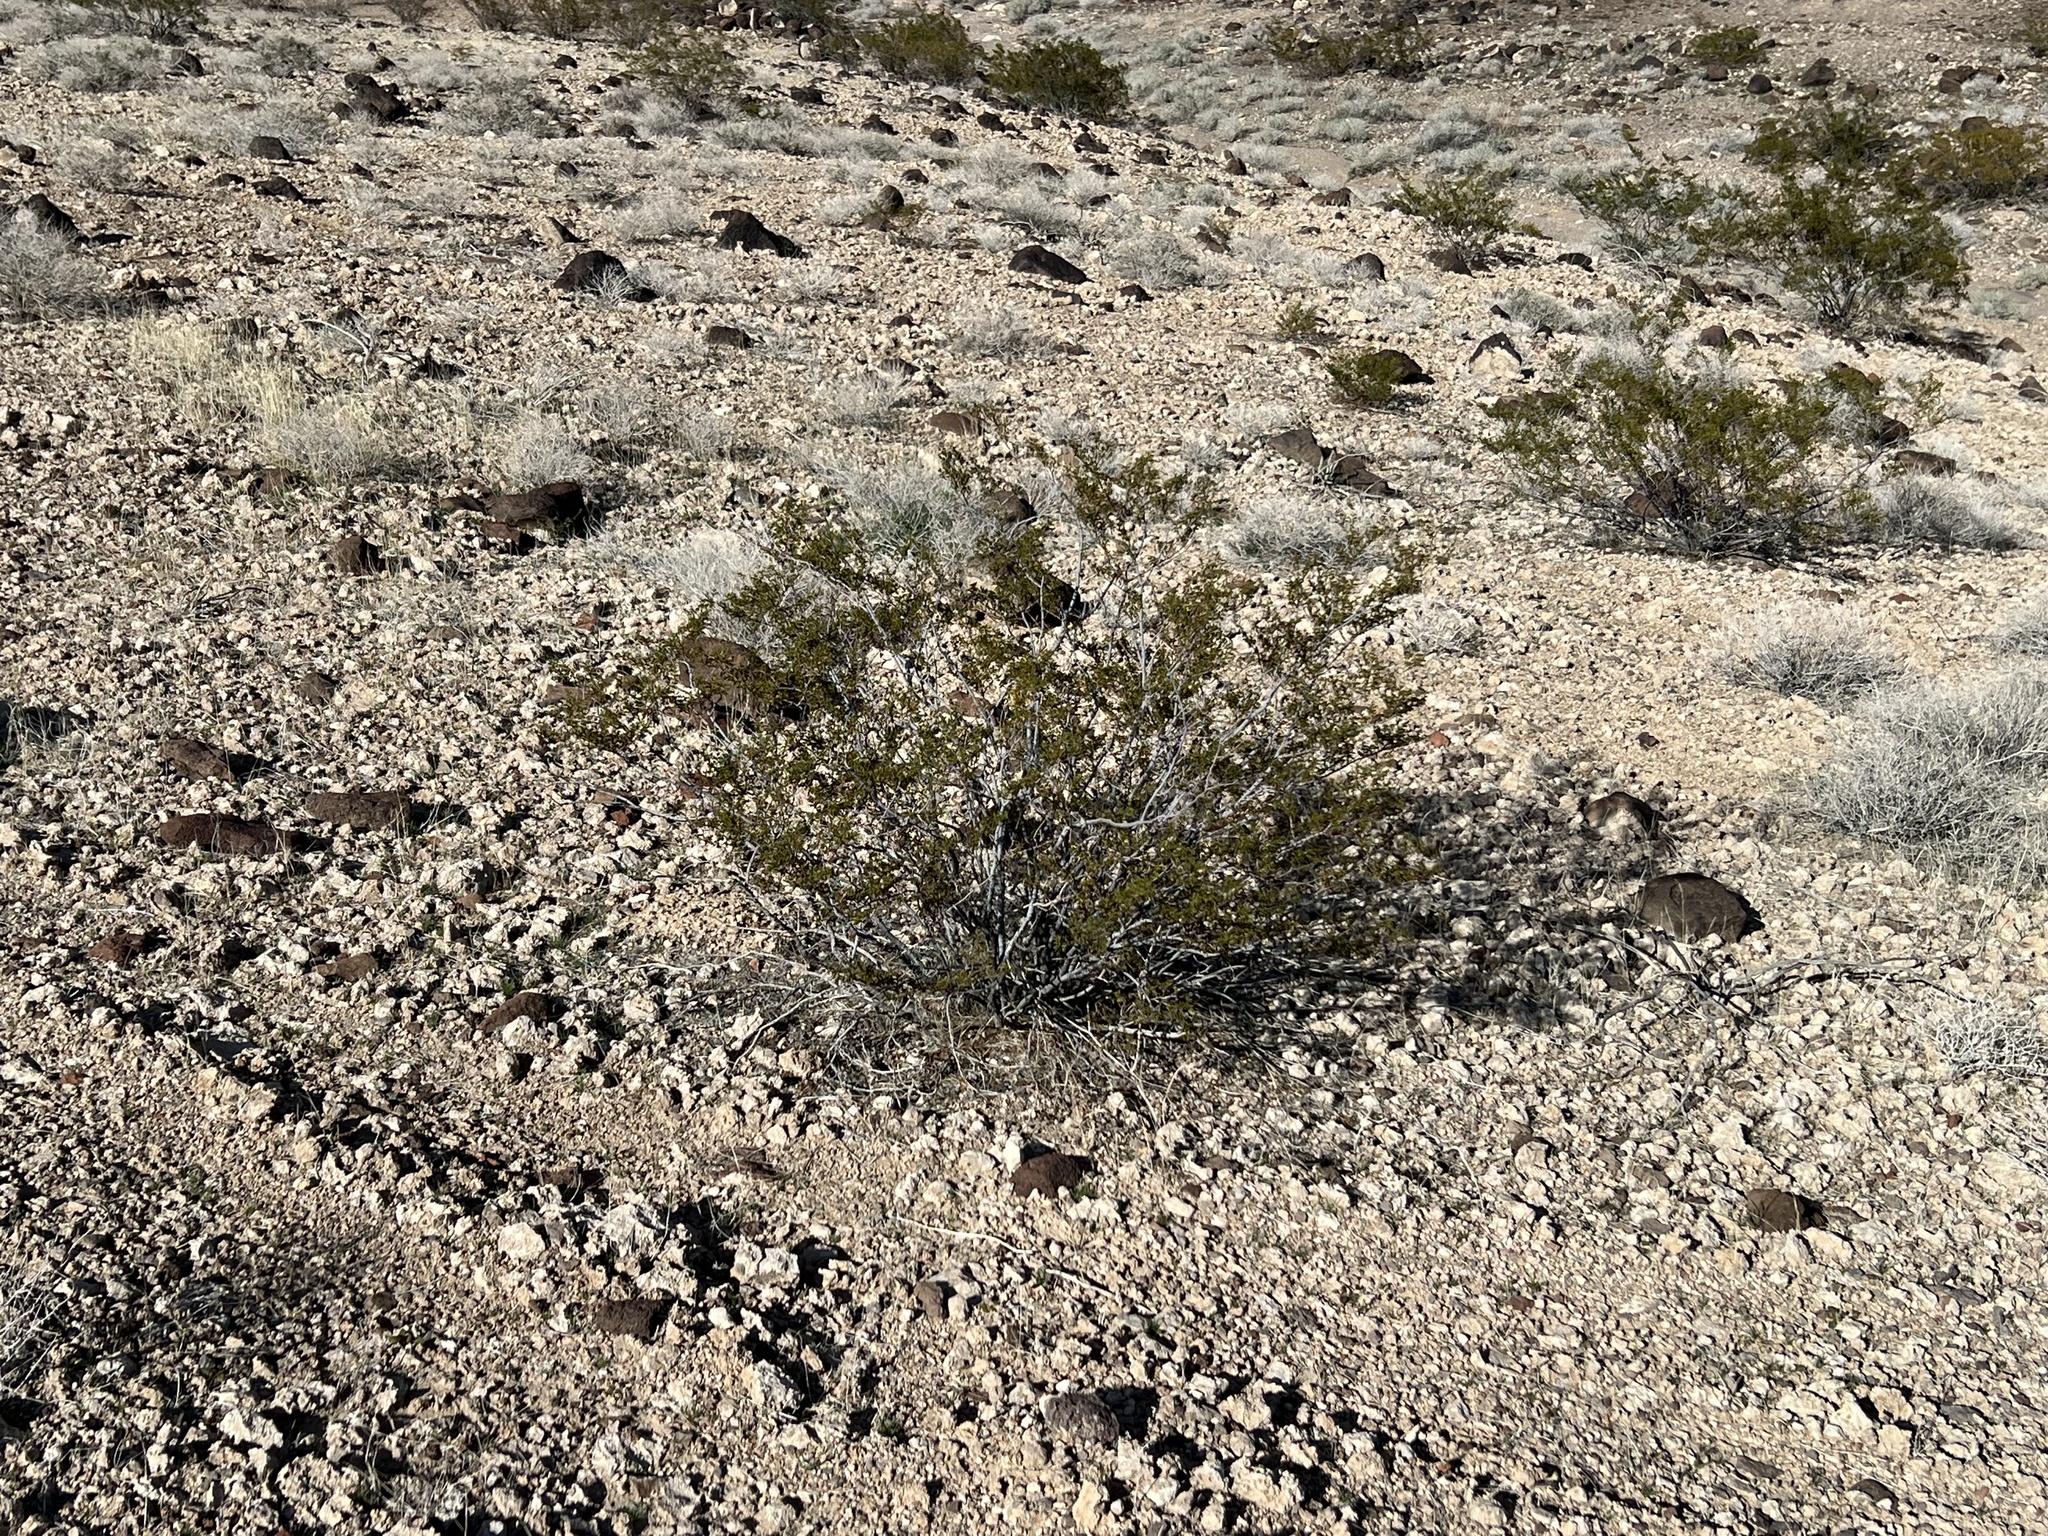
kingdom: Plantae
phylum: Tracheophyta
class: Magnoliopsida
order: Zygophyllales
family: Zygophyllaceae
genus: Larrea
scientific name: Larrea tridentata
